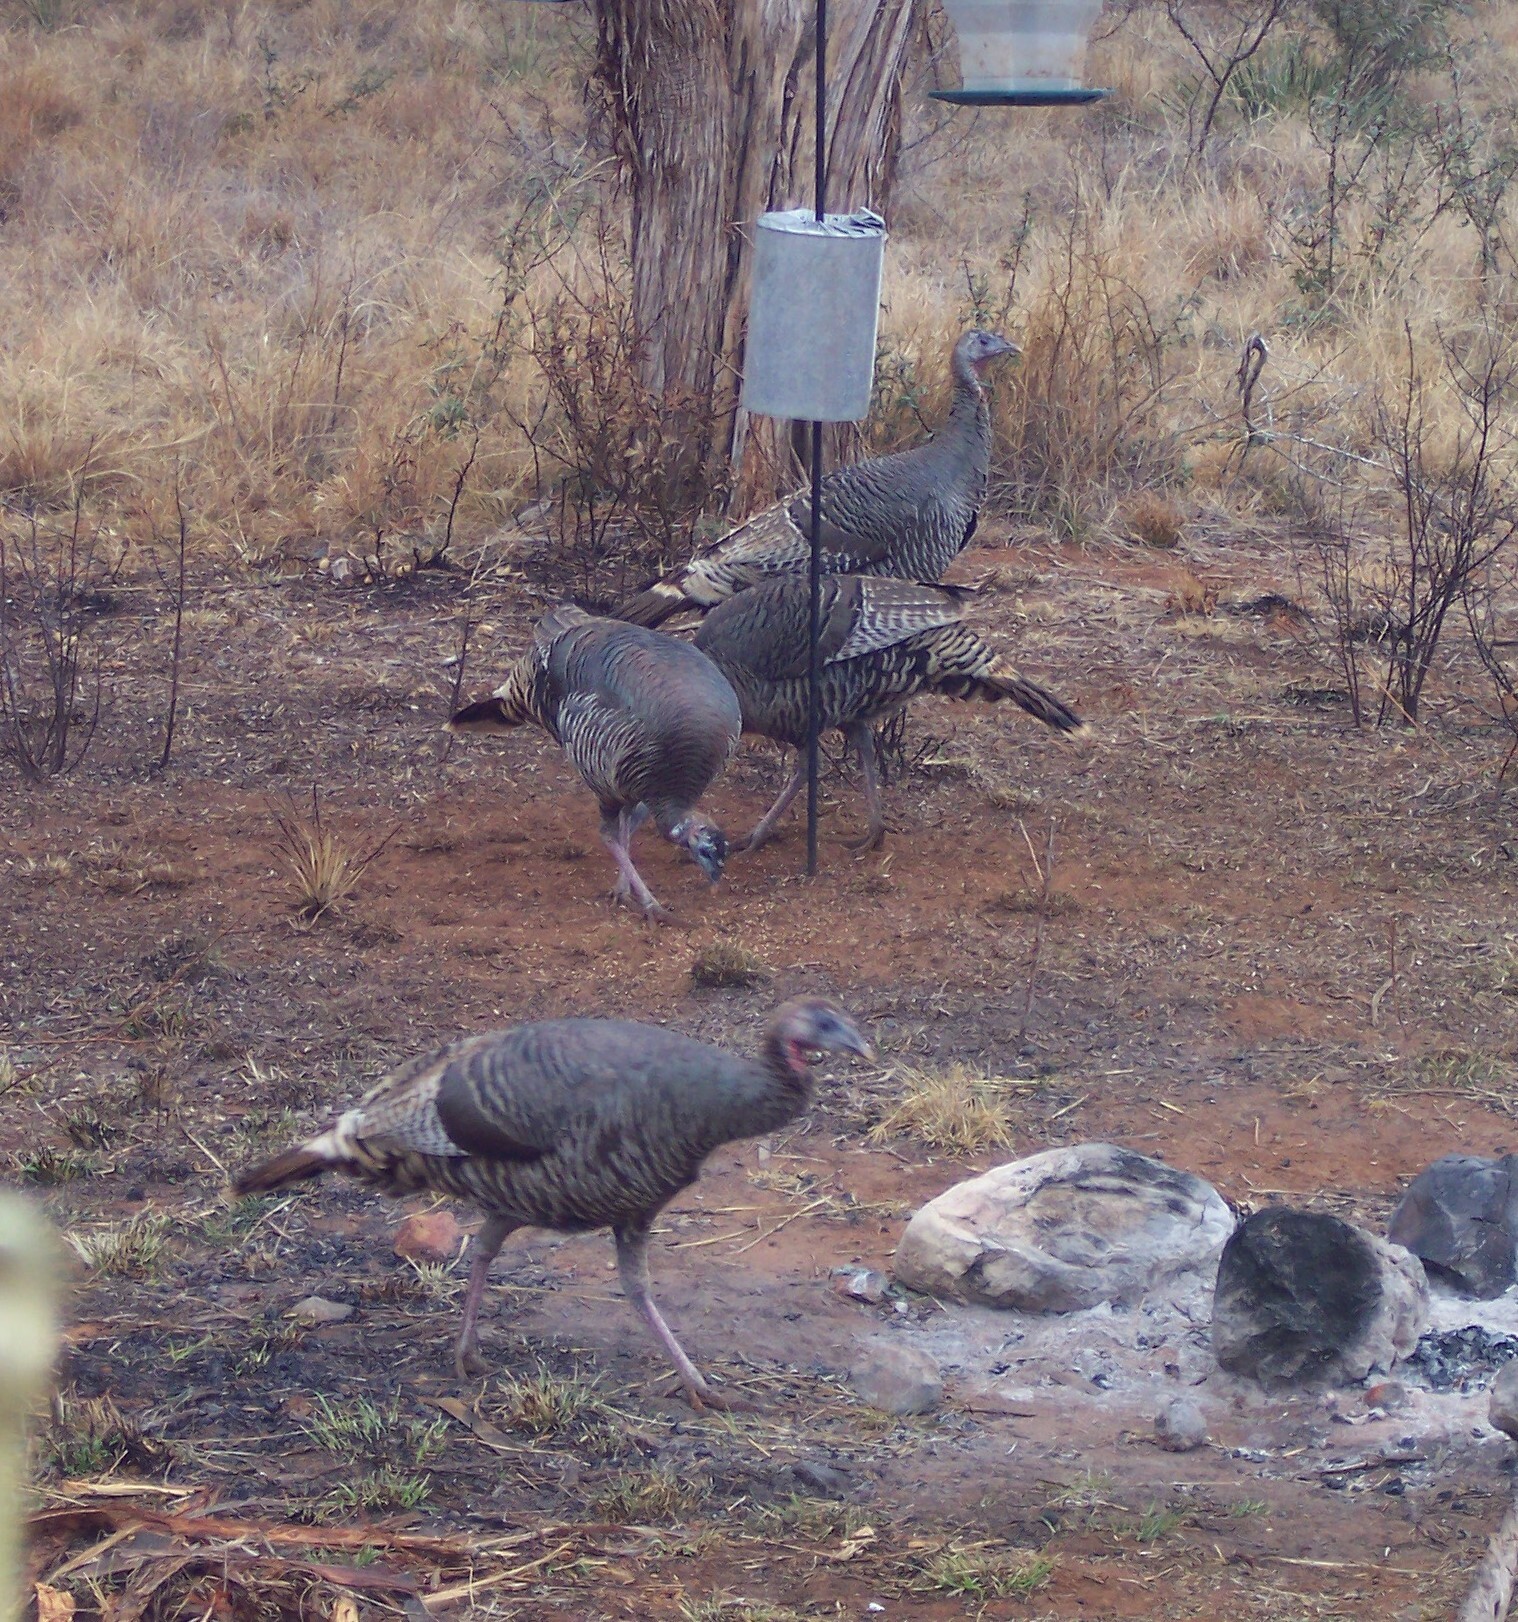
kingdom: Animalia
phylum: Chordata
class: Aves
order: Galliformes
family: Phasianidae
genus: Meleagris
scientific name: Meleagris gallopavo
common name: Wild turkey
